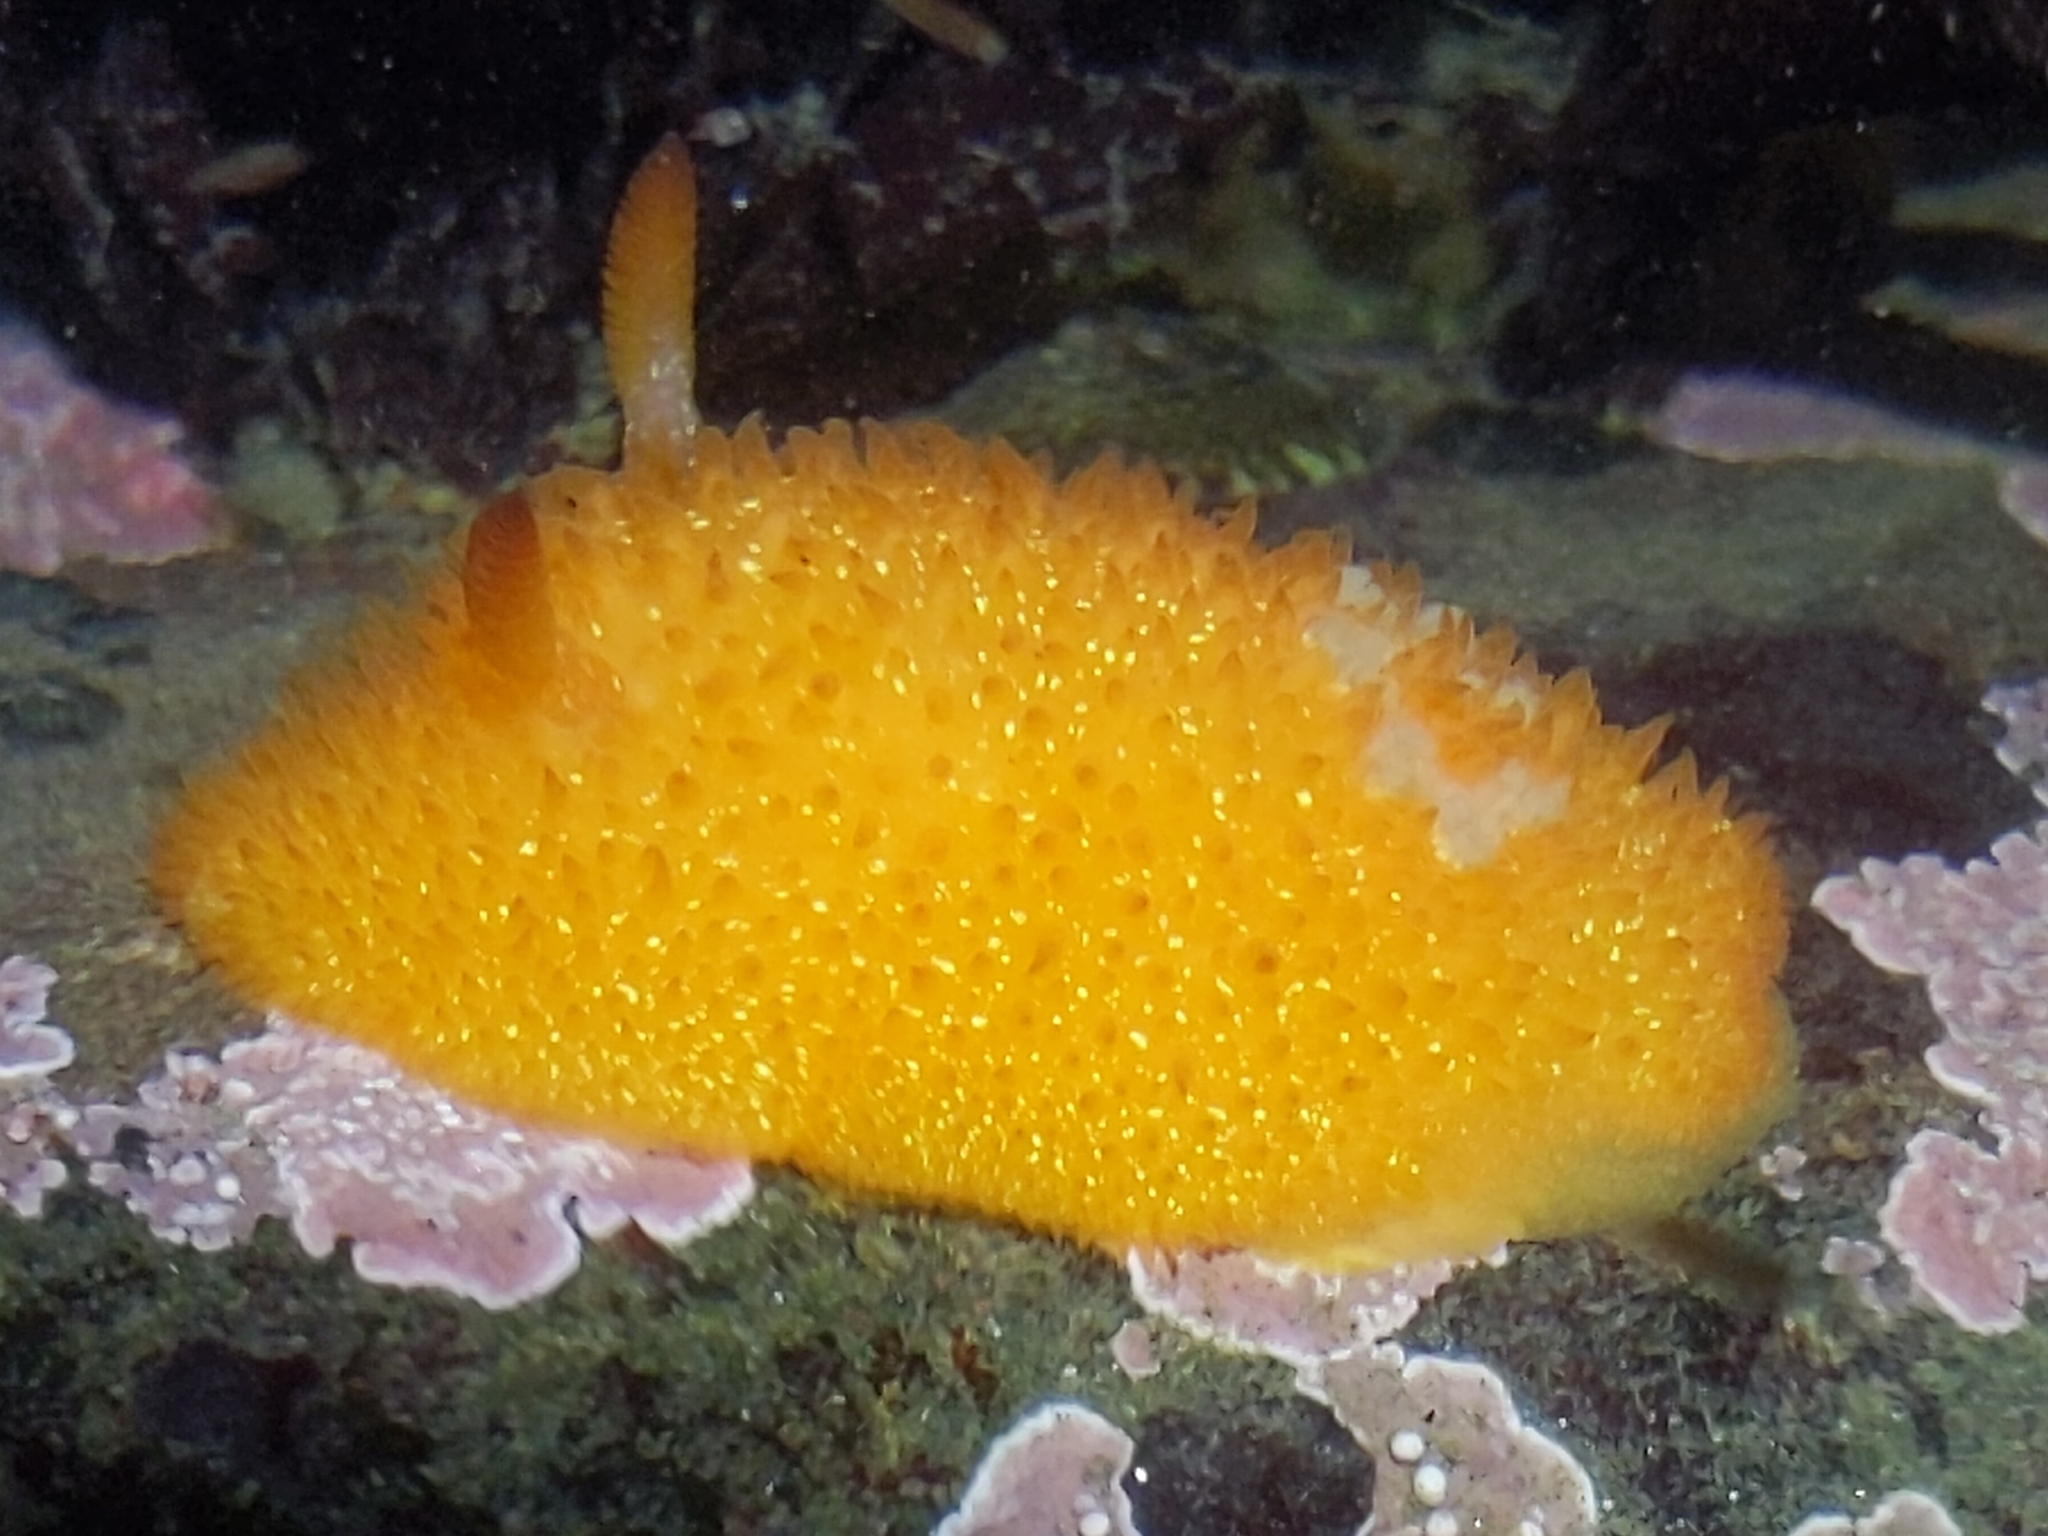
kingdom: Animalia
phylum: Mollusca
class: Gastropoda
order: Nudibranchia
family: Onchidorididae
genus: Acanthodoris
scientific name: Acanthodoris lutea
